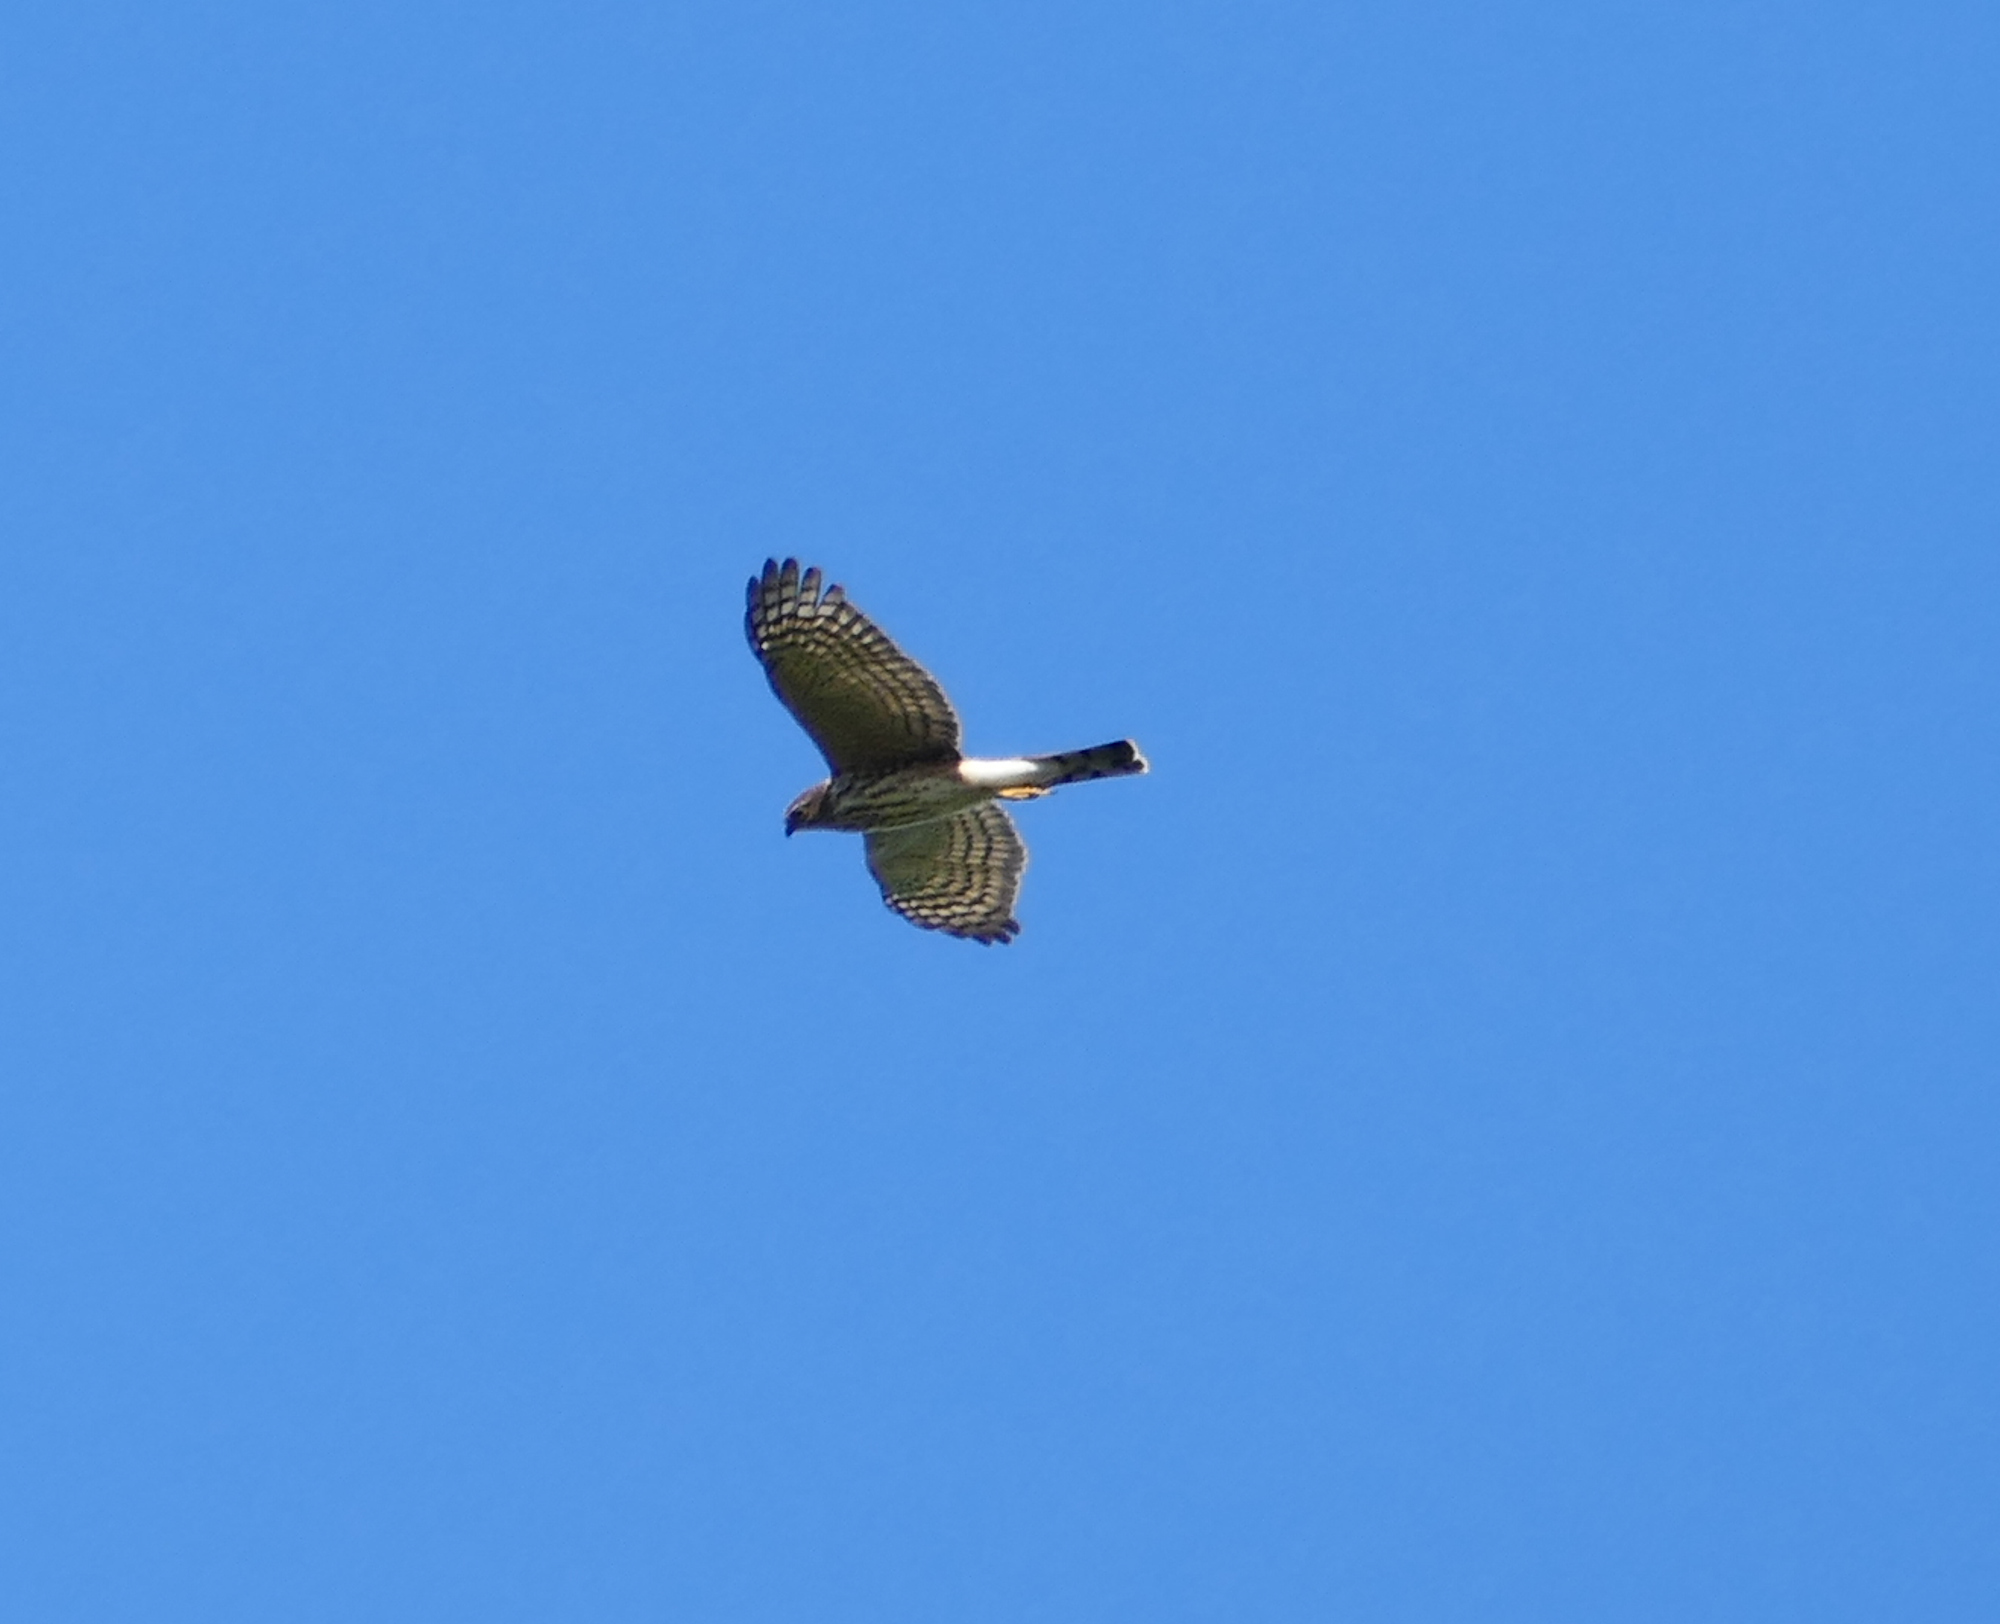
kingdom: Animalia
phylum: Chordata
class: Aves
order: Accipitriformes
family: Accipitridae
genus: Accipiter
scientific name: Accipiter striatus
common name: Sharp-shinned hawk
